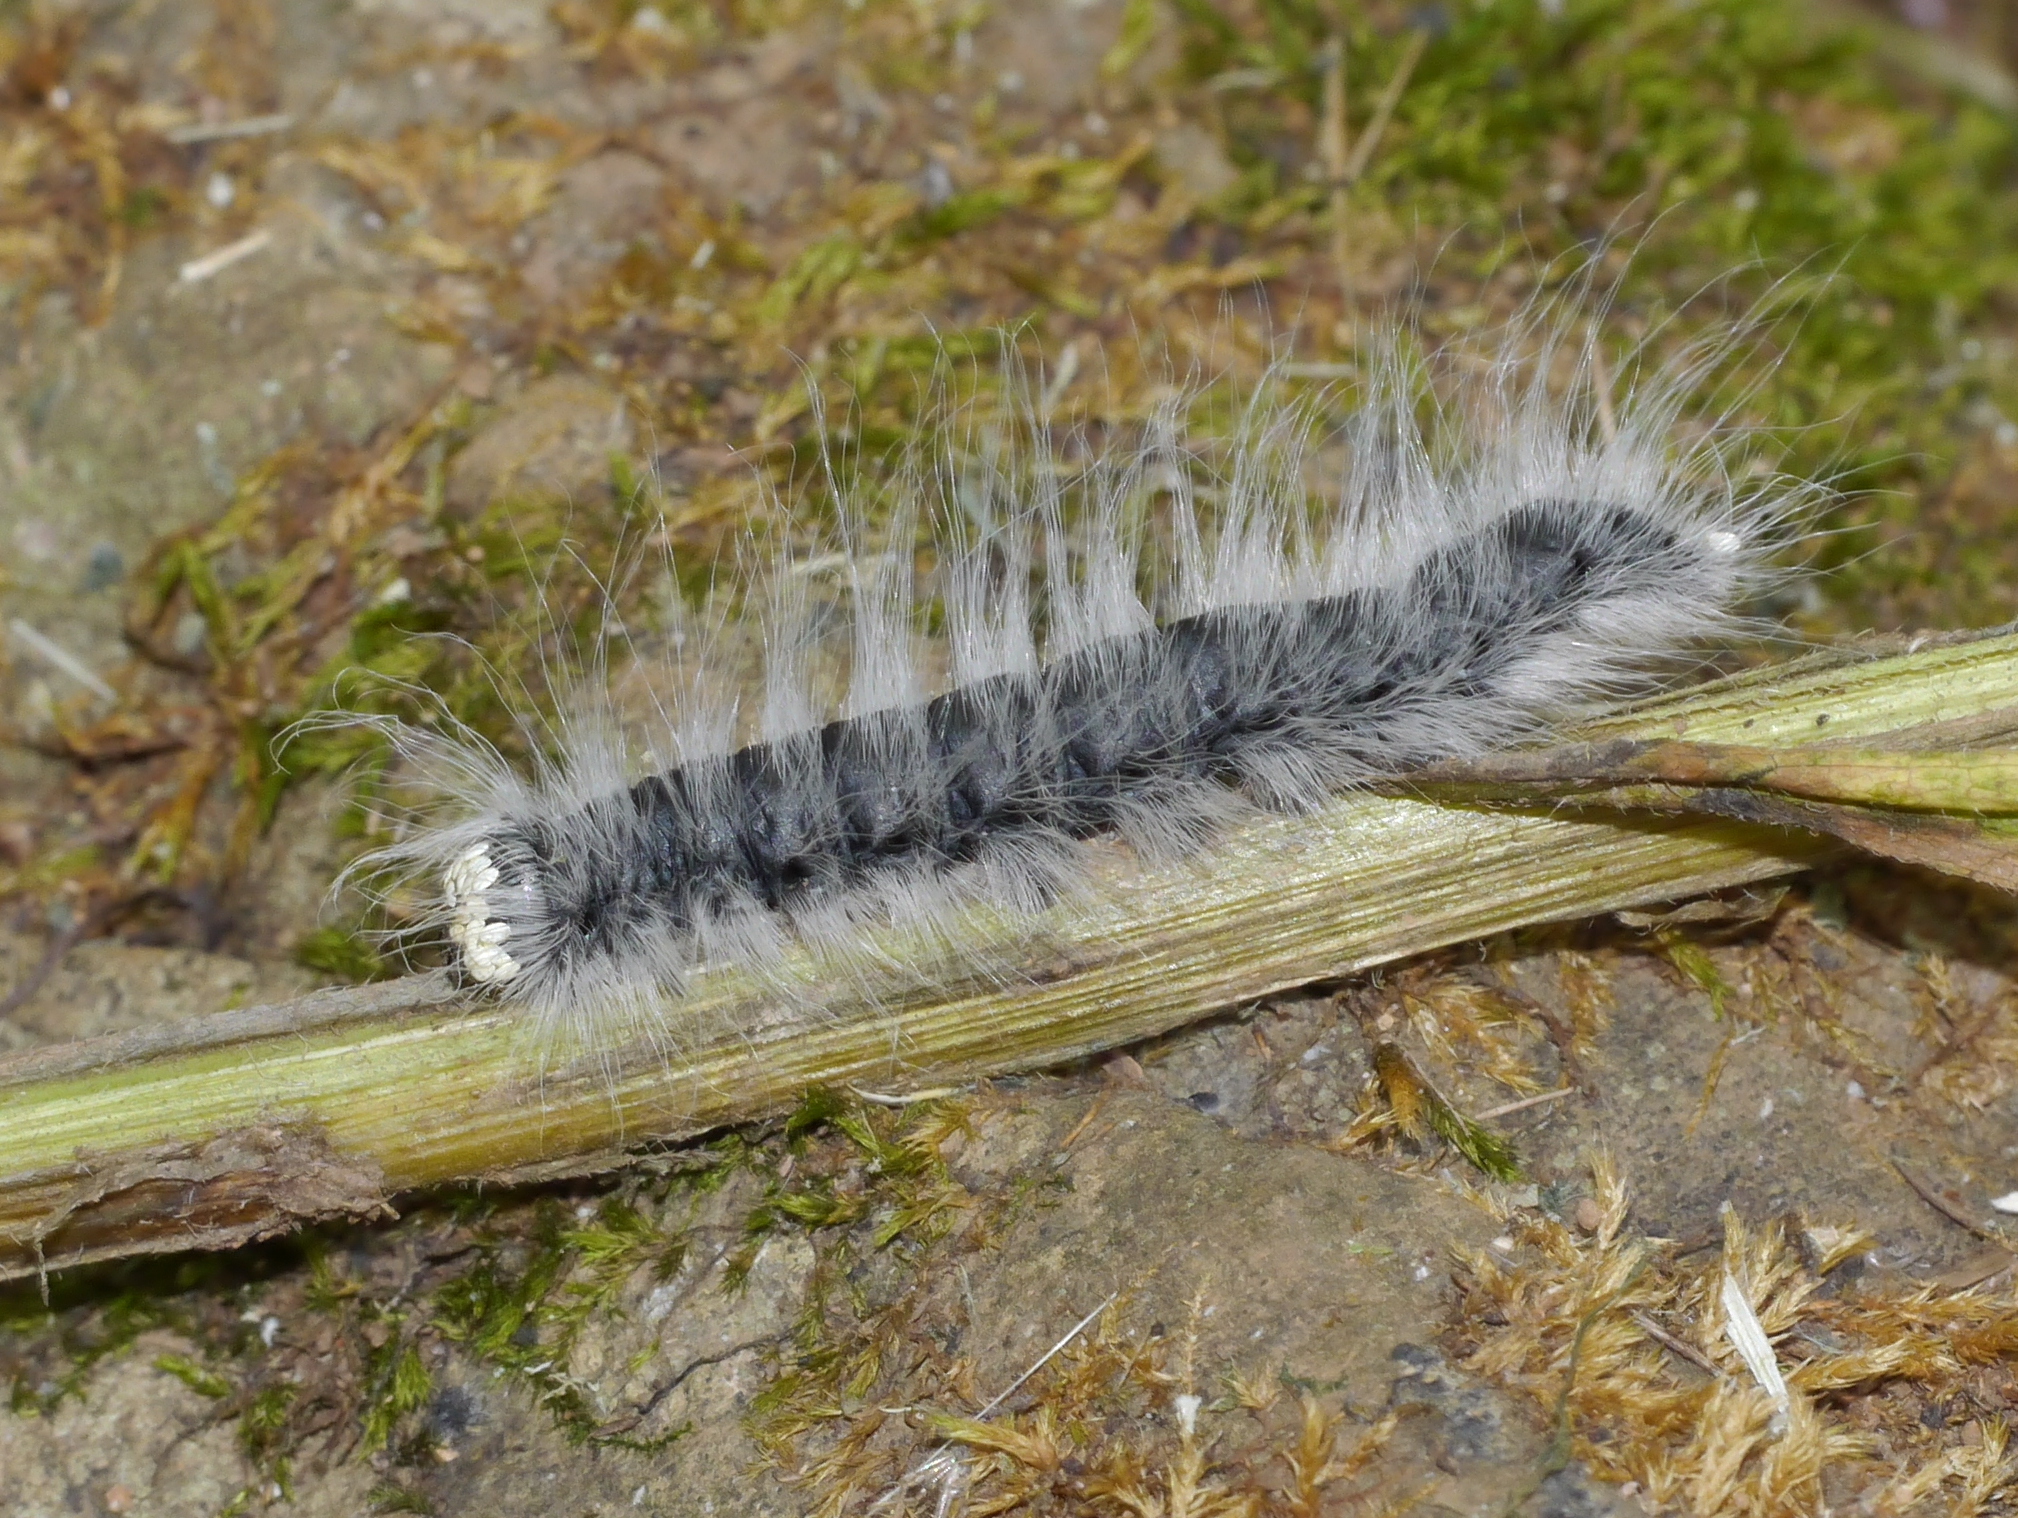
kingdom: Animalia
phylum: Arthropoda
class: Insecta
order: Lepidoptera
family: Notodontidae
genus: Datana
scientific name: Datana integerrima
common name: Walnut caterpillar
